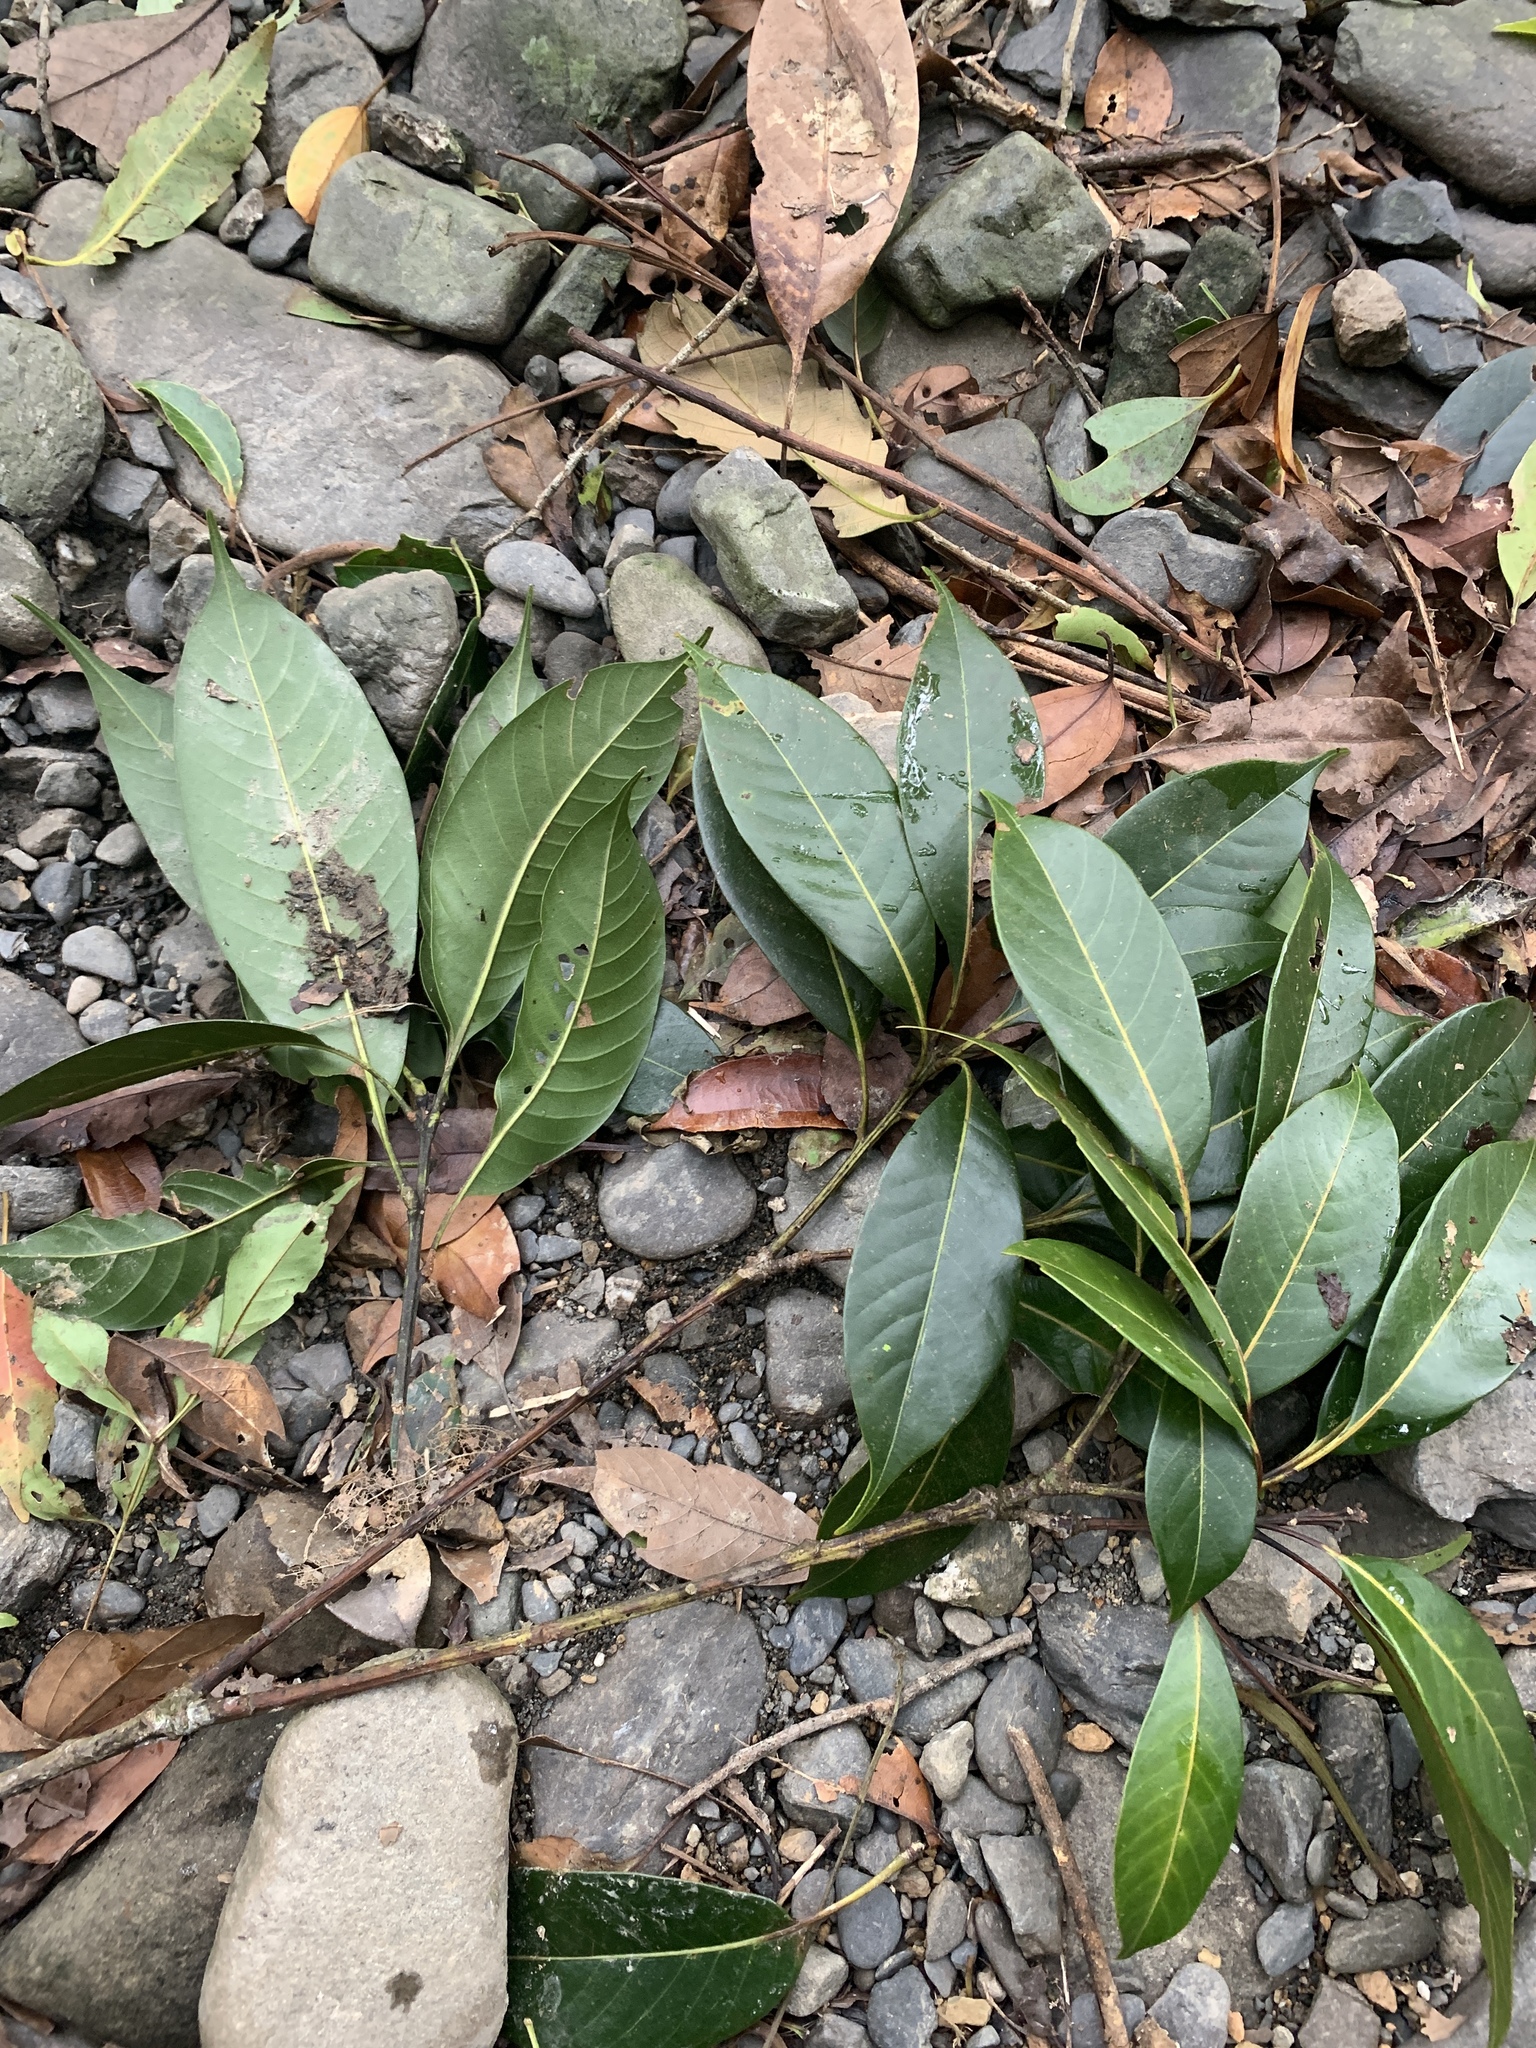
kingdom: Plantae
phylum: Tracheophyta
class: Magnoliopsida
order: Fagales
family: Fagaceae
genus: Lithocarpus
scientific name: Lithocarpus brevicaudatus
